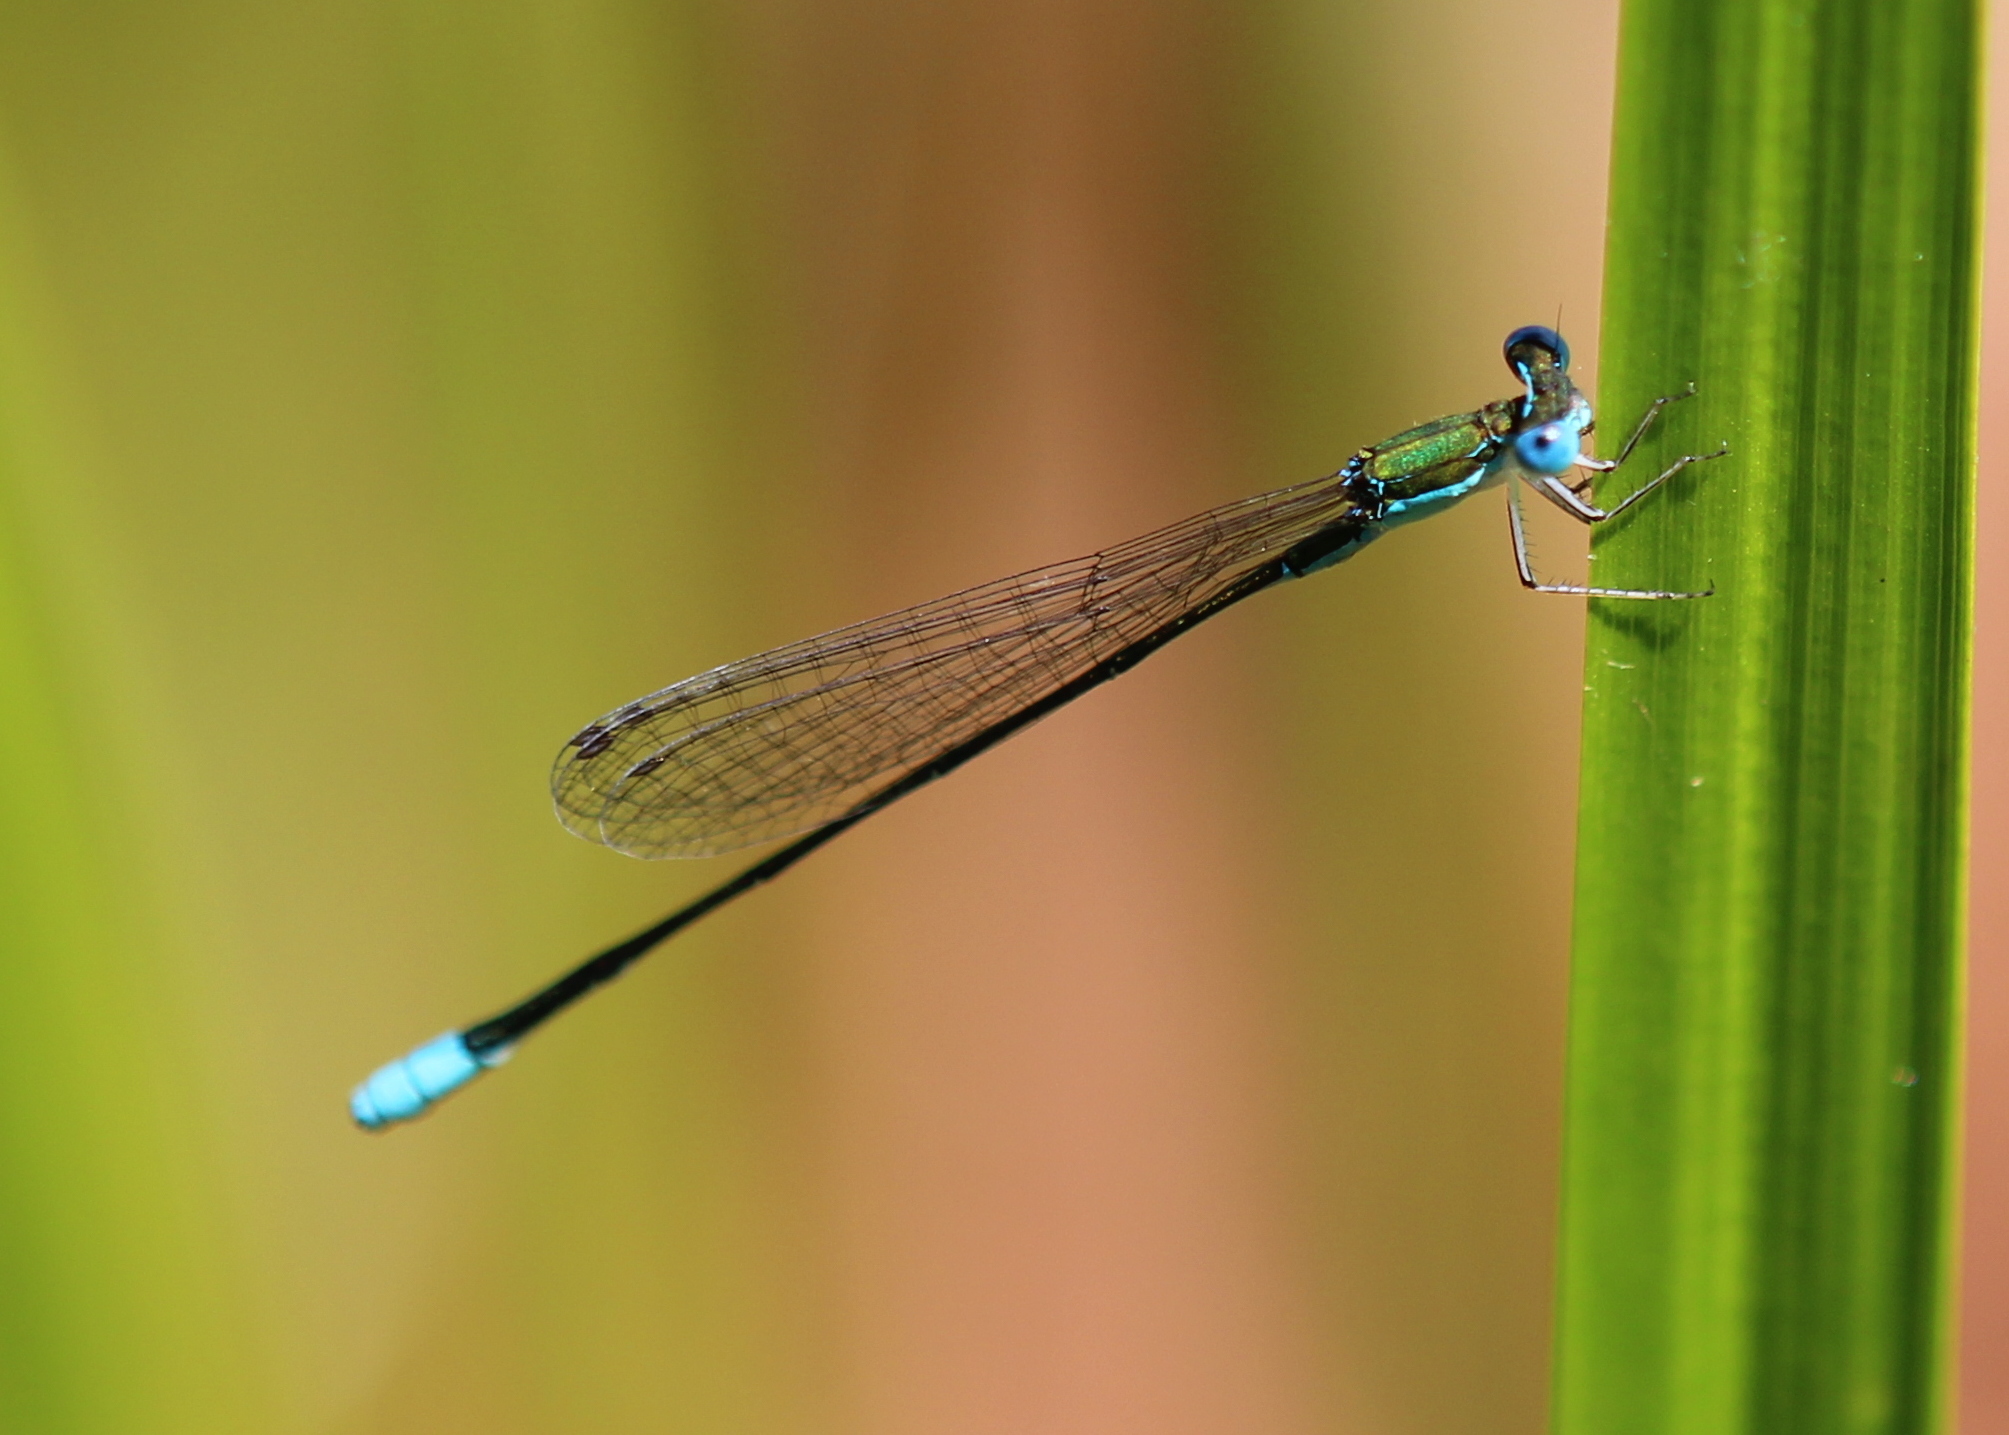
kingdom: Animalia
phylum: Arthropoda
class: Insecta
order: Odonata
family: Coenagrionidae
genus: Nehalennia
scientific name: Nehalennia gracilis
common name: Sphagnum sprite
